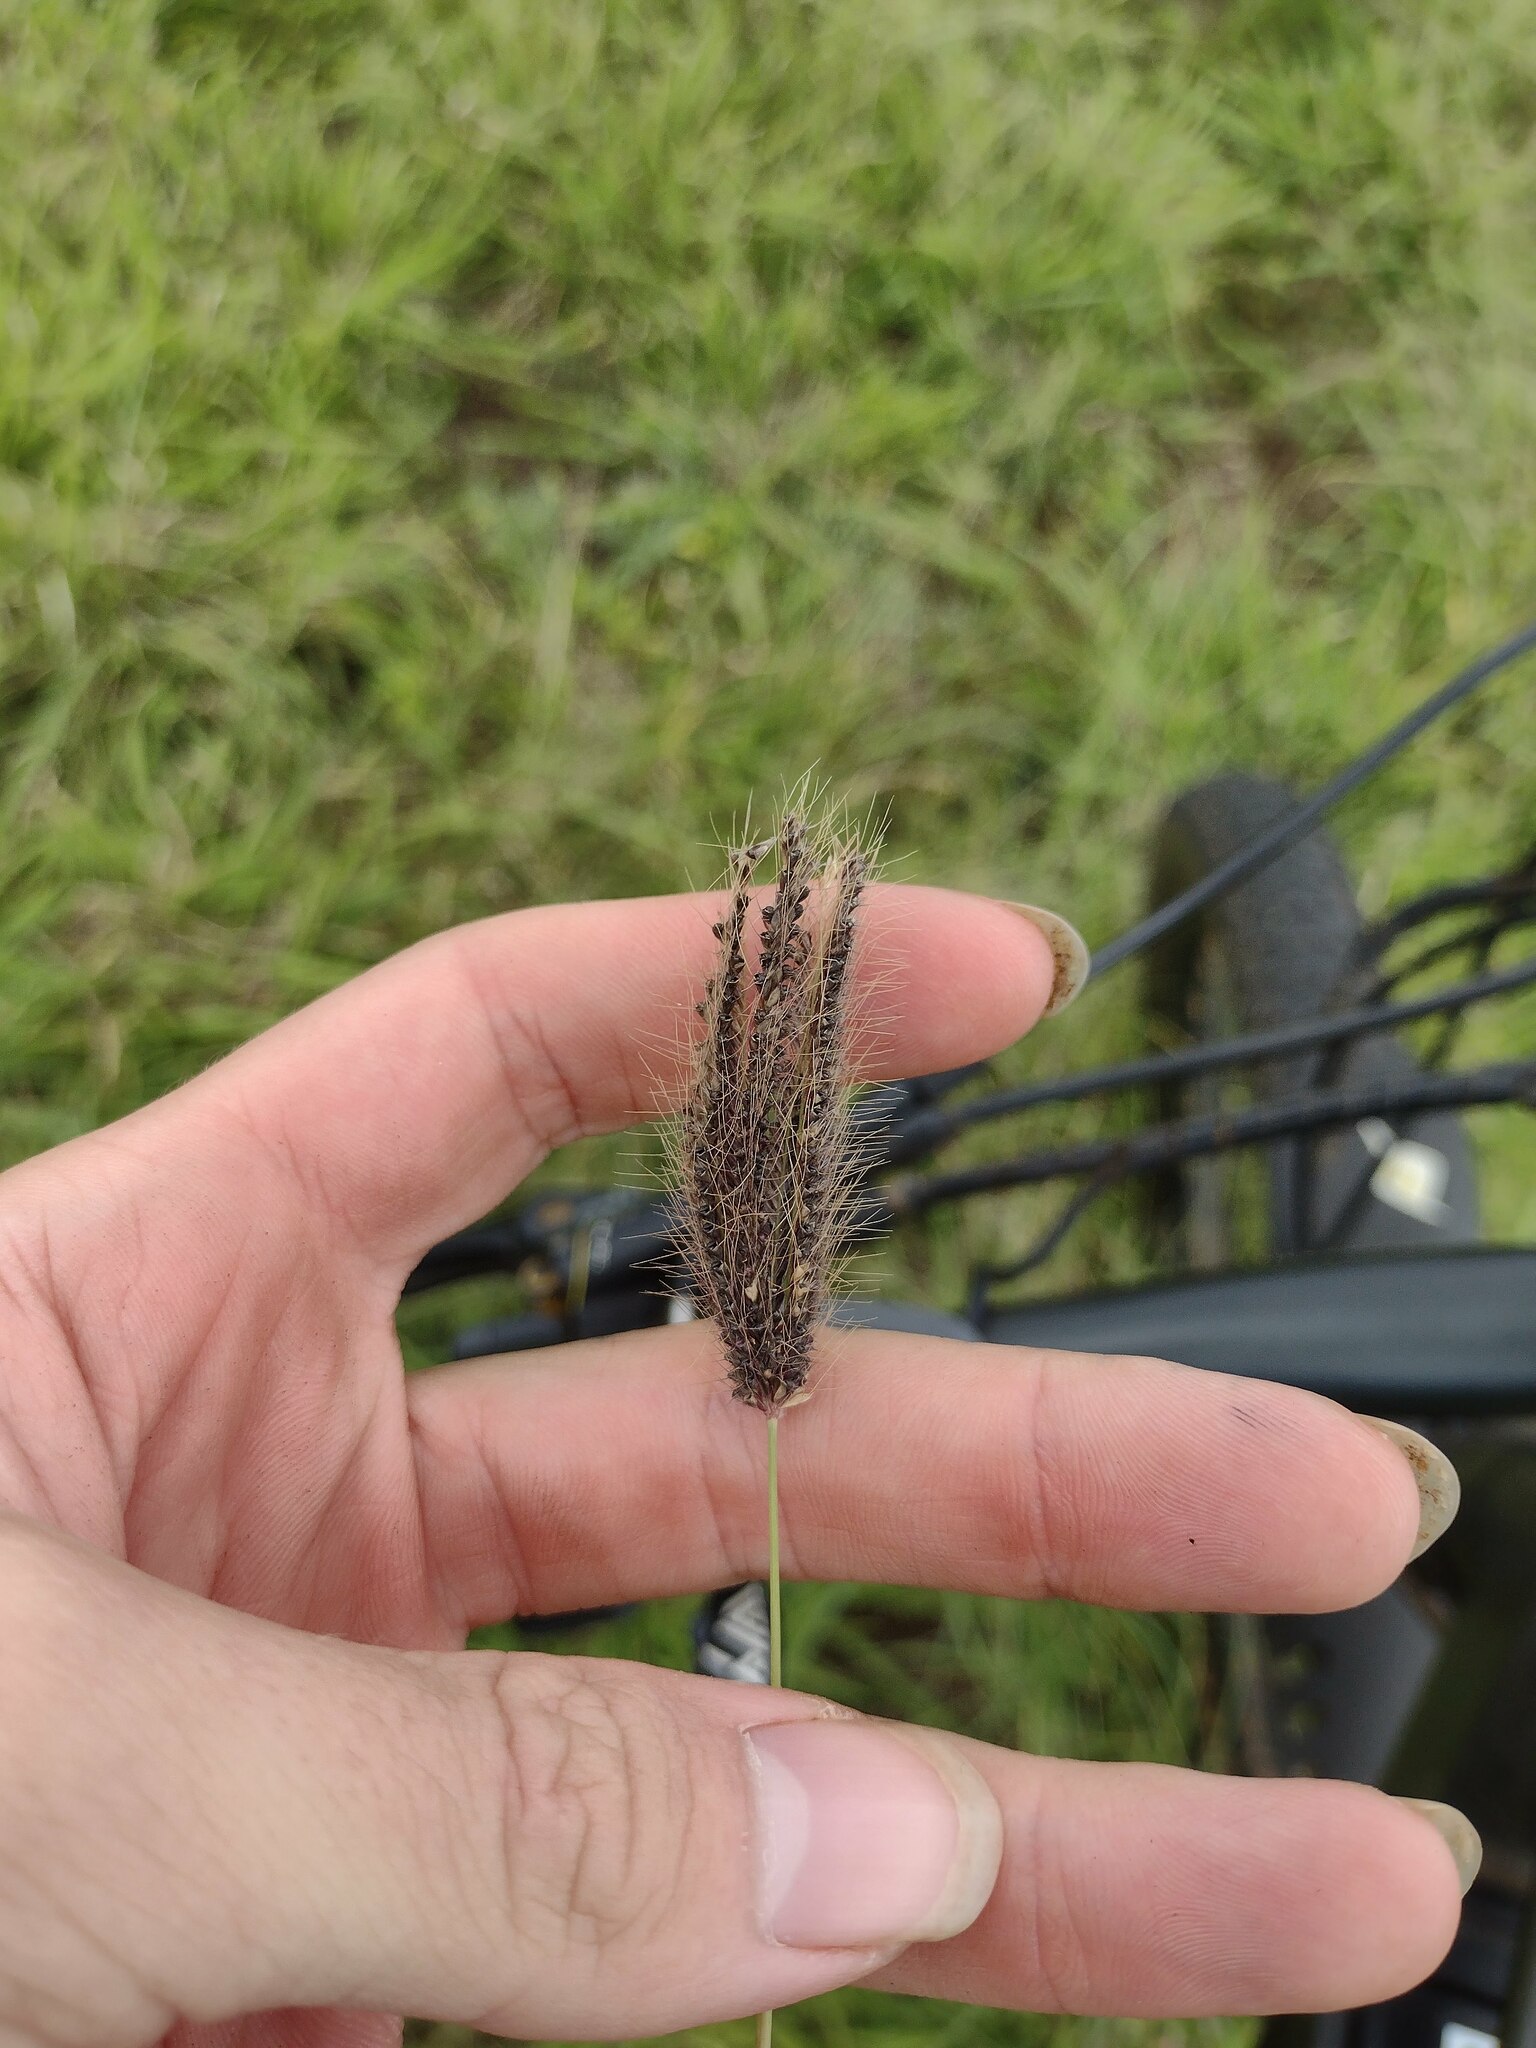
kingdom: Plantae
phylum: Tracheophyta
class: Liliopsida
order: Poales
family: Poaceae
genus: Chloris
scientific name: Chloris barbata
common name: Swollen fingergrass
